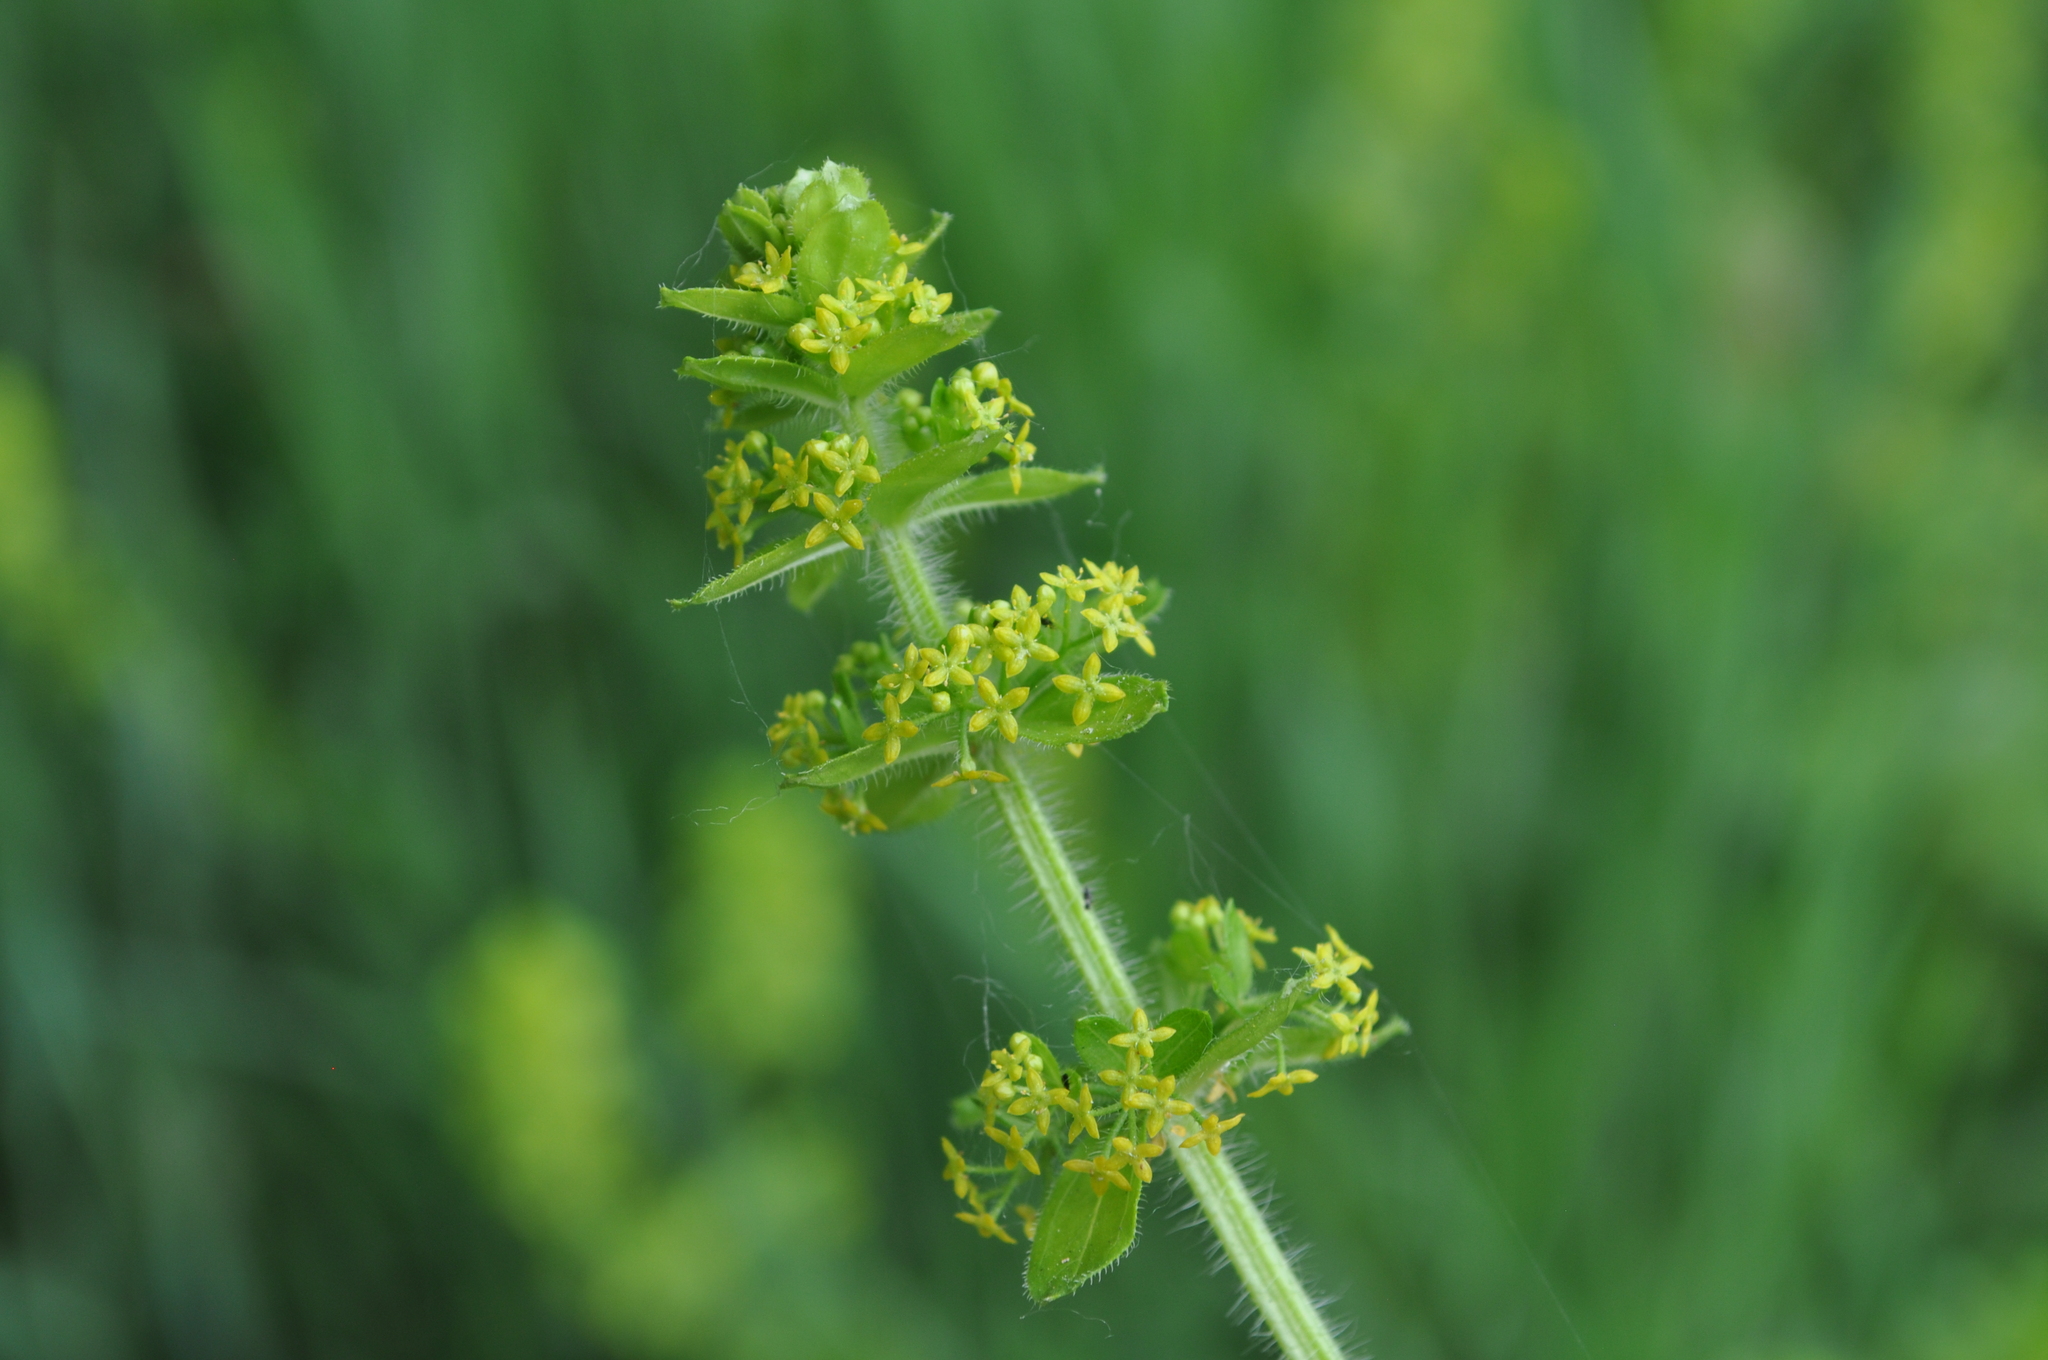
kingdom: Plantae
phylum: Tracheophyta
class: Magnoliopsida
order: Gentianales
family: Rubiaceae
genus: Cruciata
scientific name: Cruciata laevipes
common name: Crosswort
